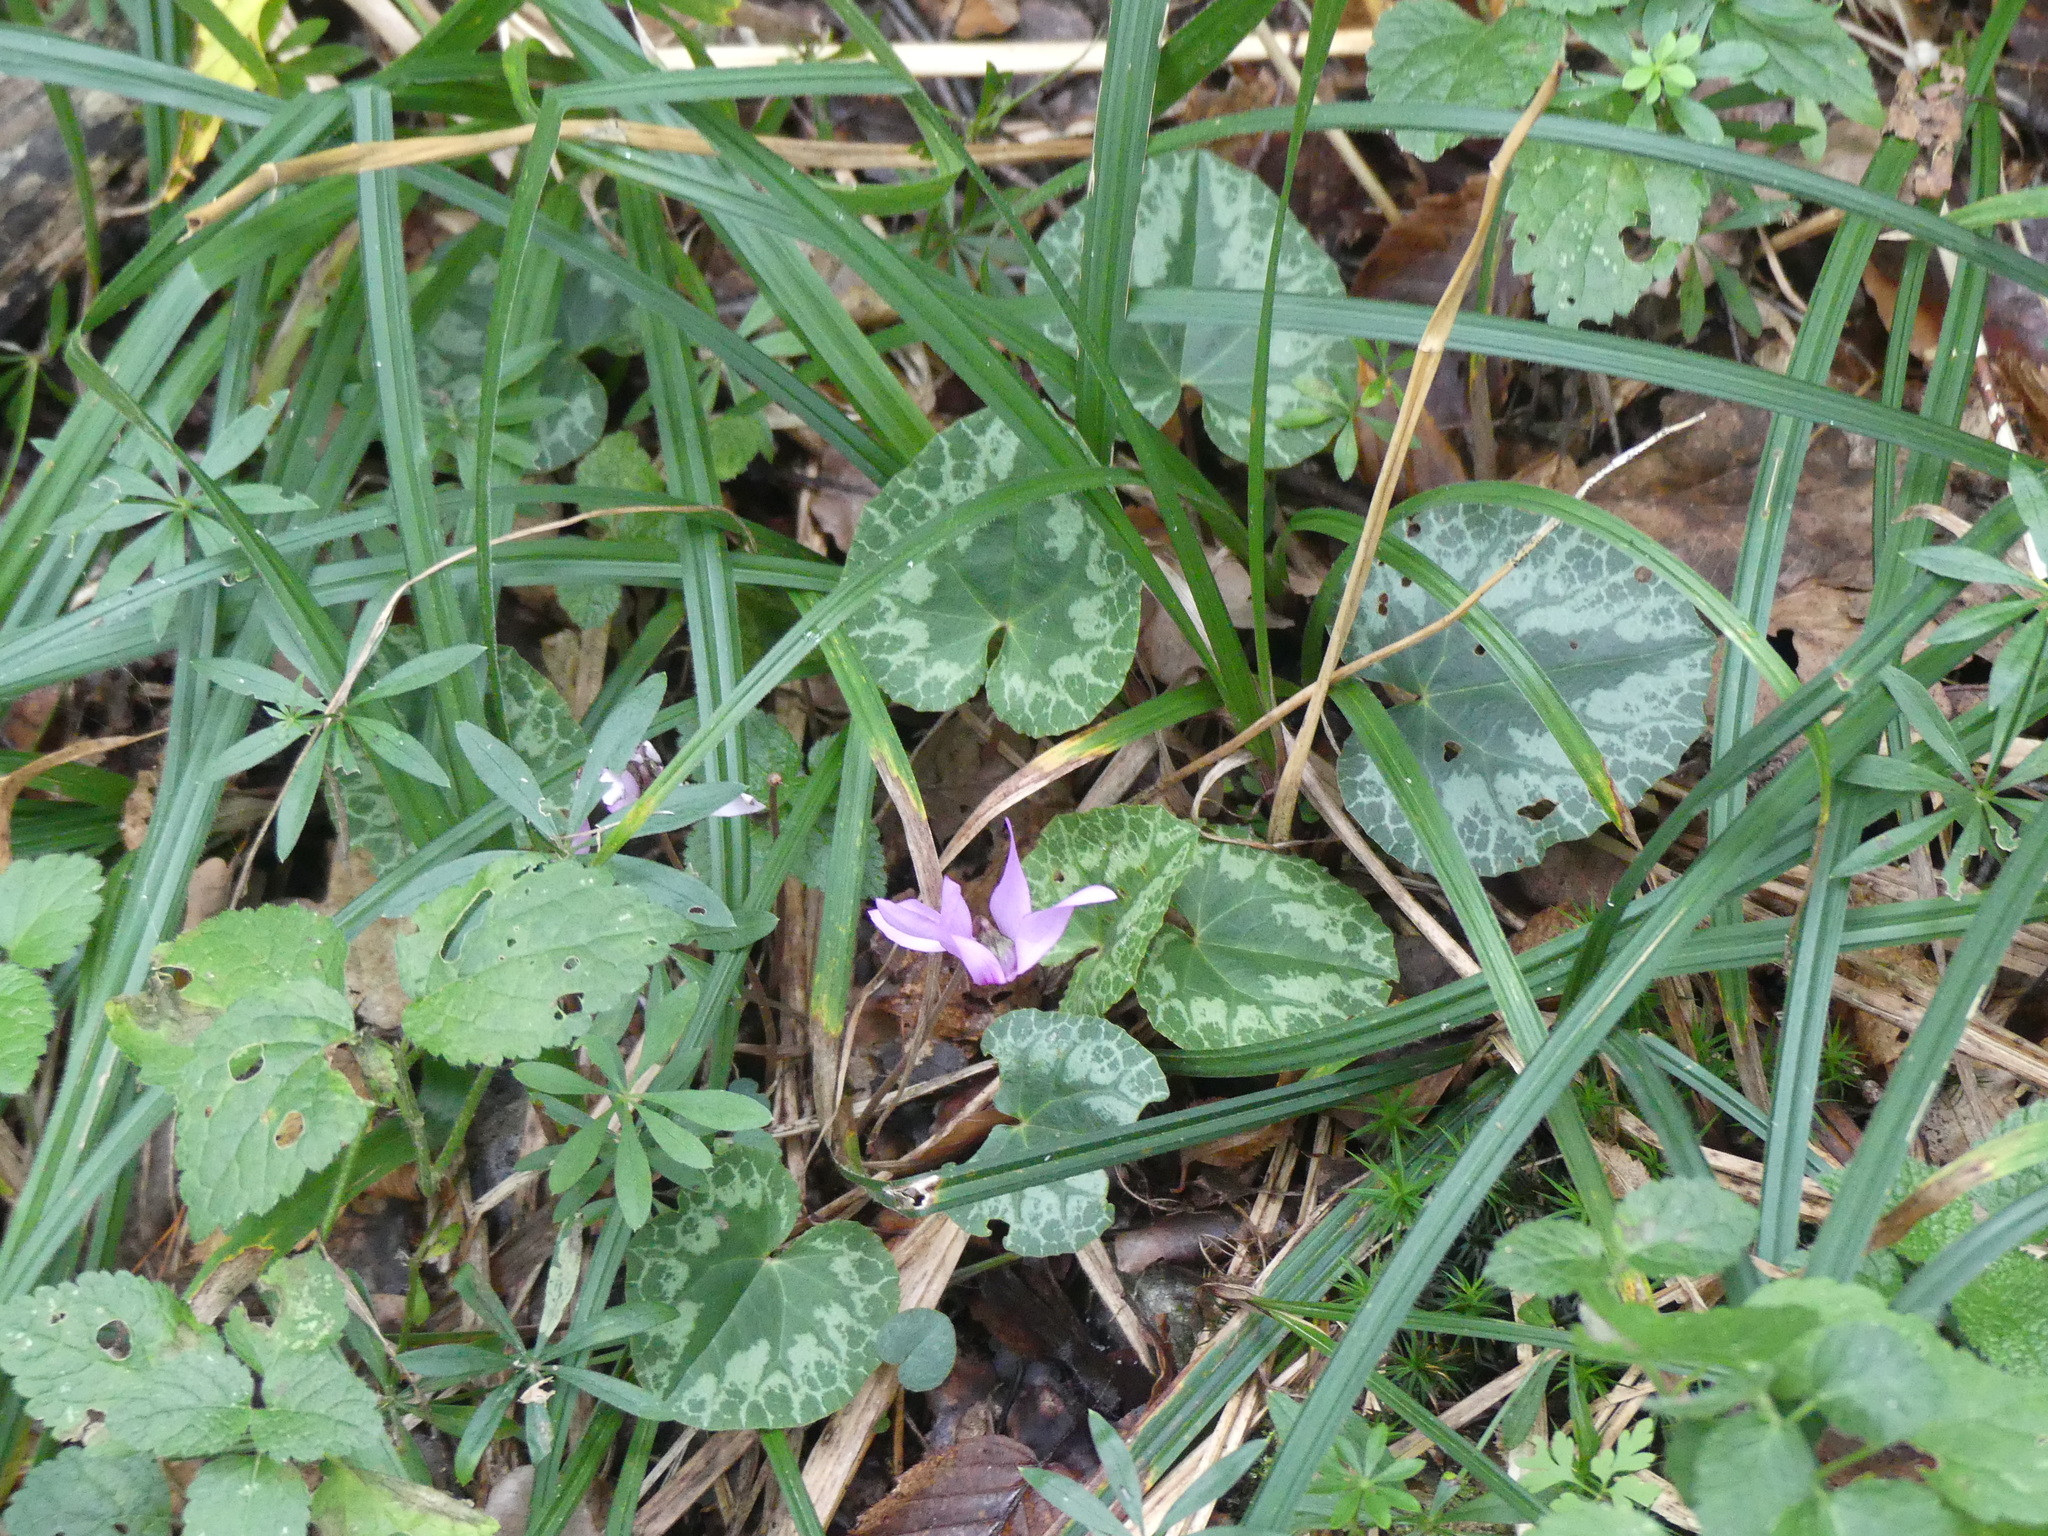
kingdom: Plantae
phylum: Tracheophyta
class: Magnoliopsida
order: Ericales
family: Primulaceae
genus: Cyclamen
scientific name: Cyclamen purpurascens
